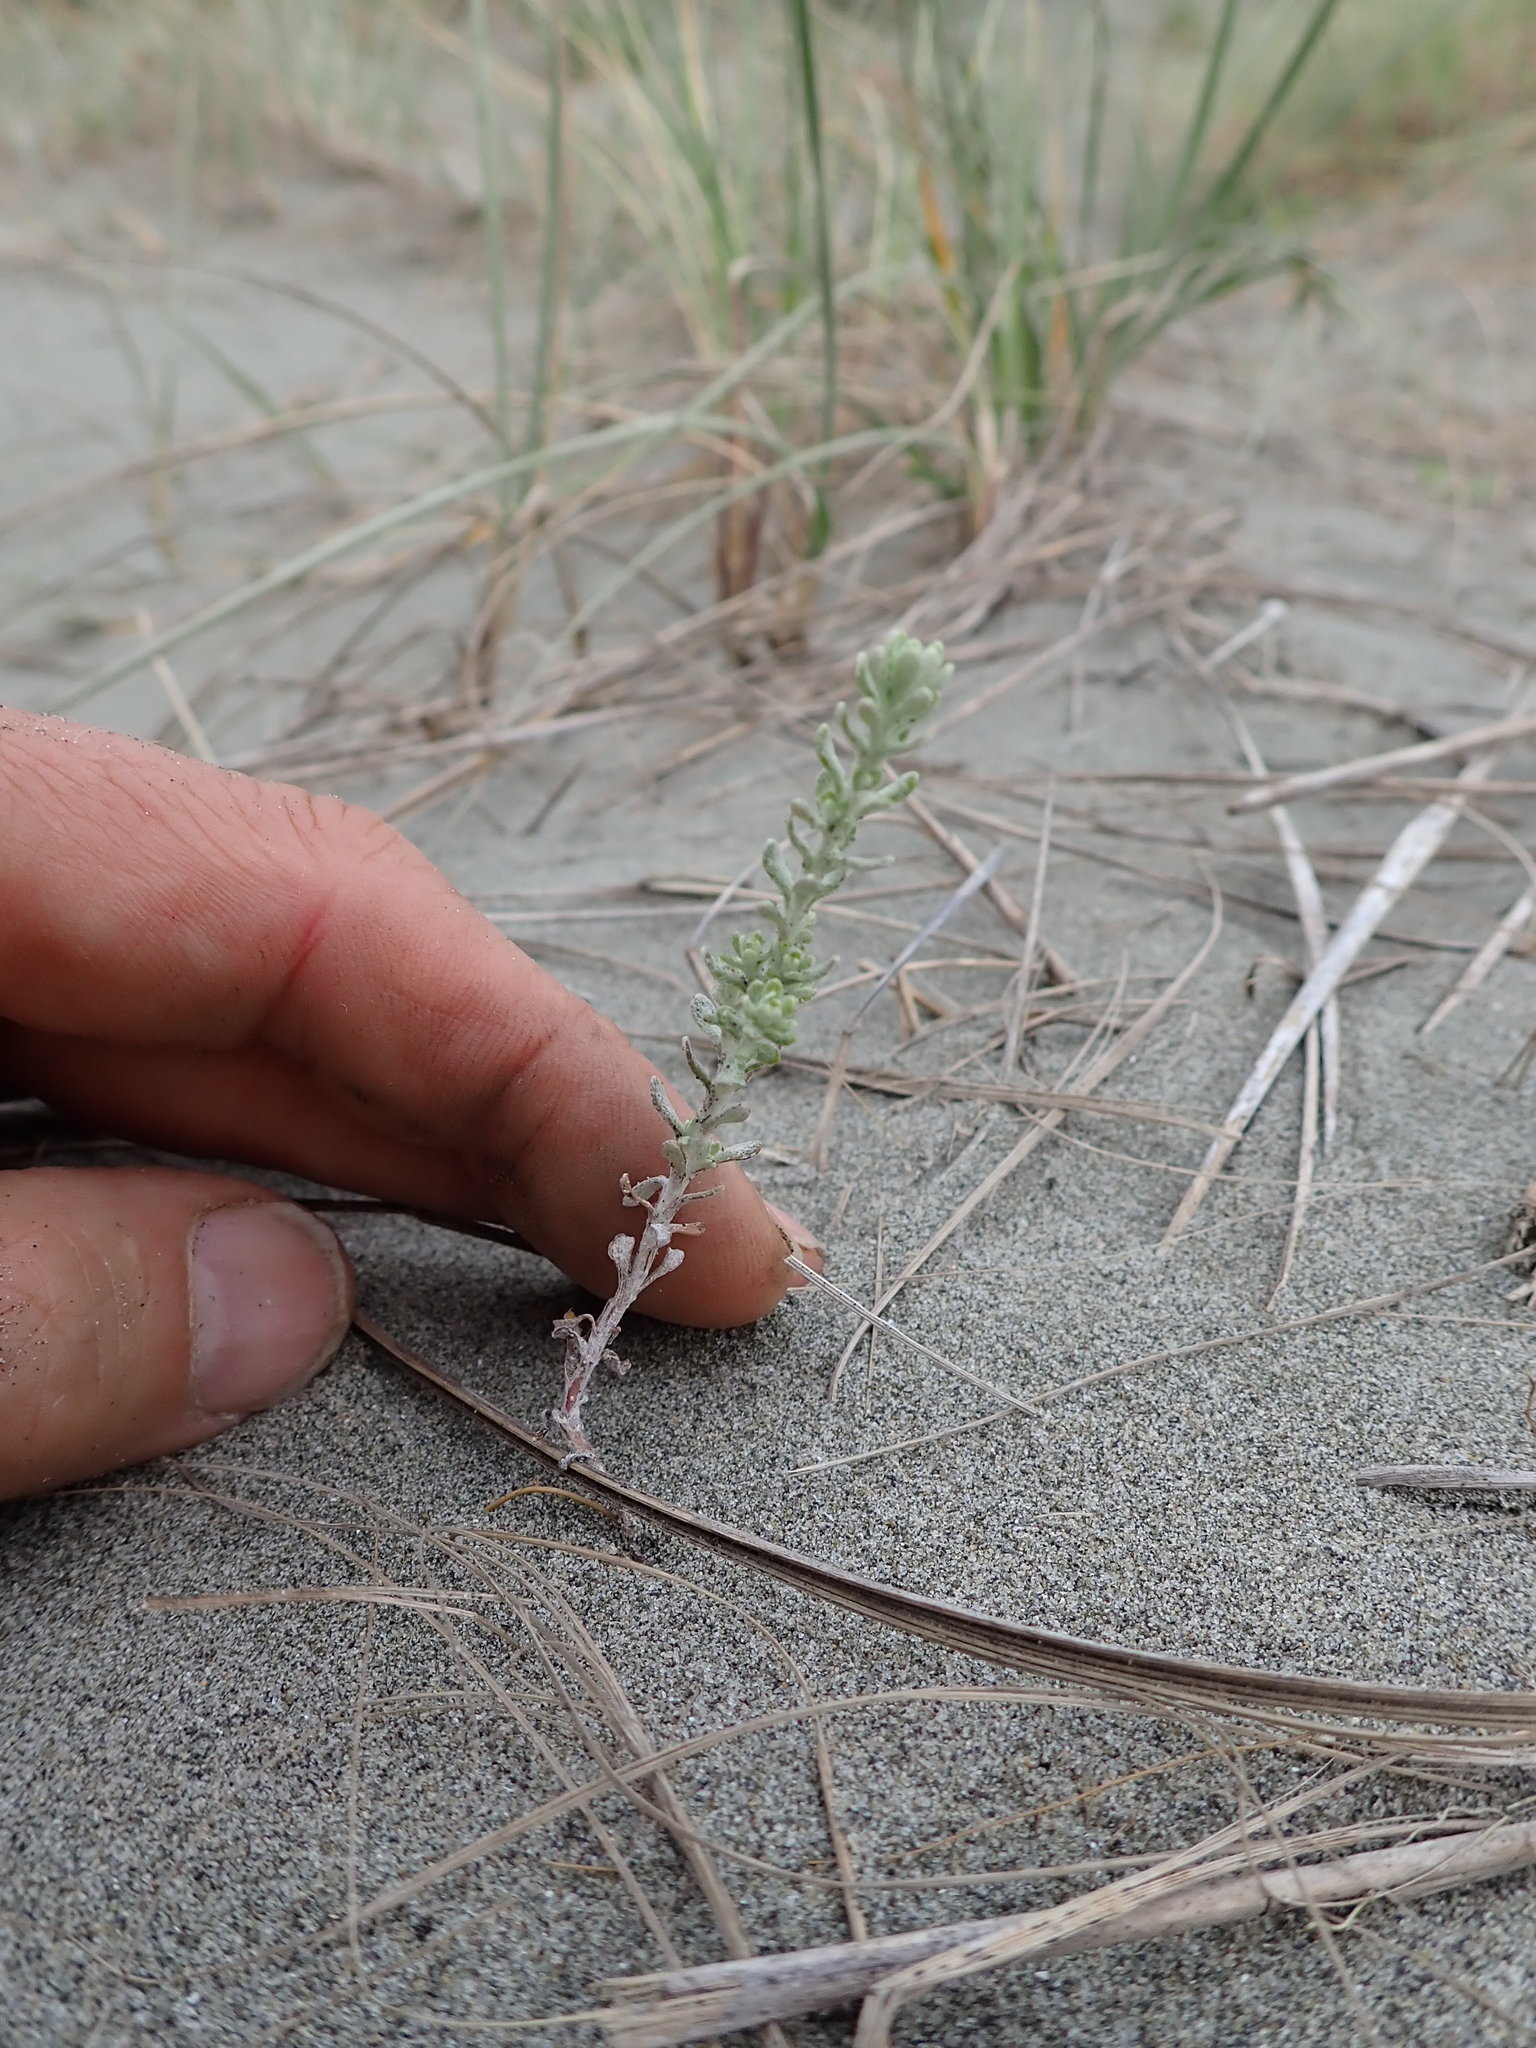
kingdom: Plantae
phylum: Tracheophyta
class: Magnoliopsida
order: Asterales
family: Asteraceae
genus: Ozothamnus
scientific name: Ozothamnus leptophyllus
